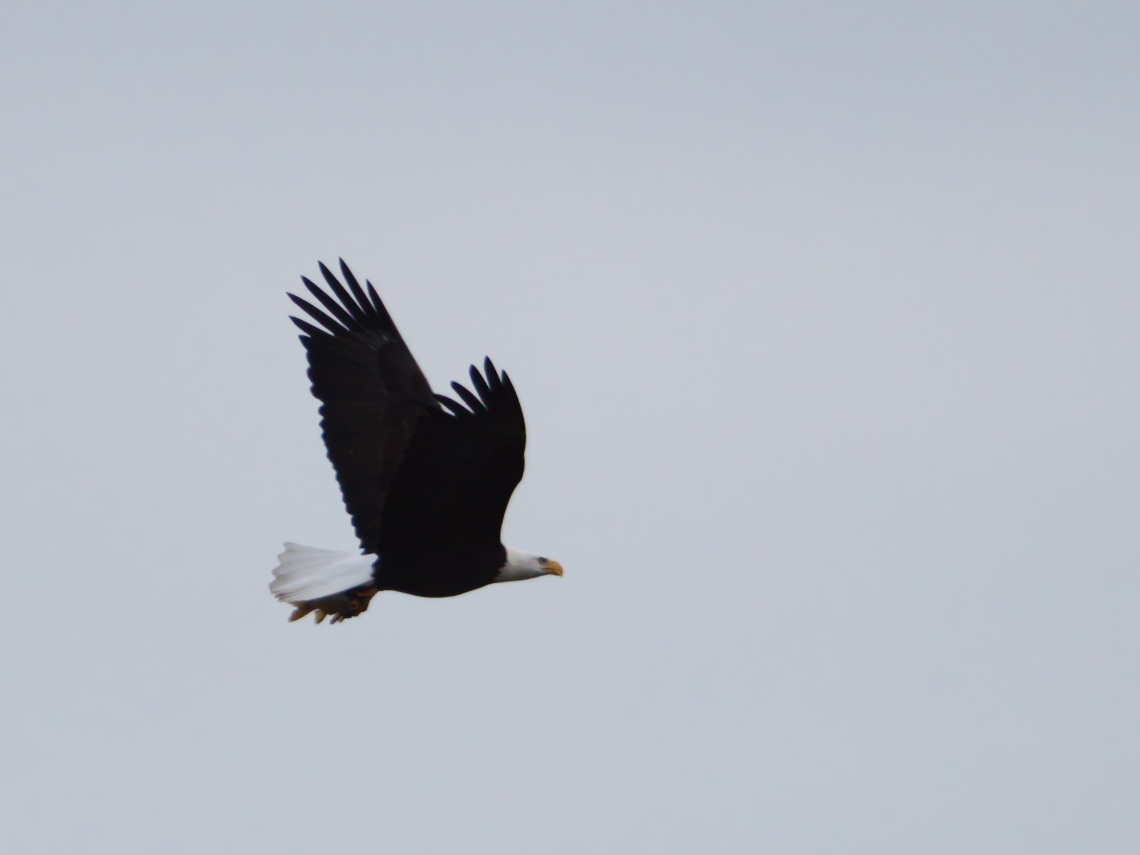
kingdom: Animalia
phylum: Chordata
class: Aves
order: Accipitriformes
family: Accipitridae
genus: Haliaeetus
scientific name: Haliaeetus leucocephalus
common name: Bald eagle
